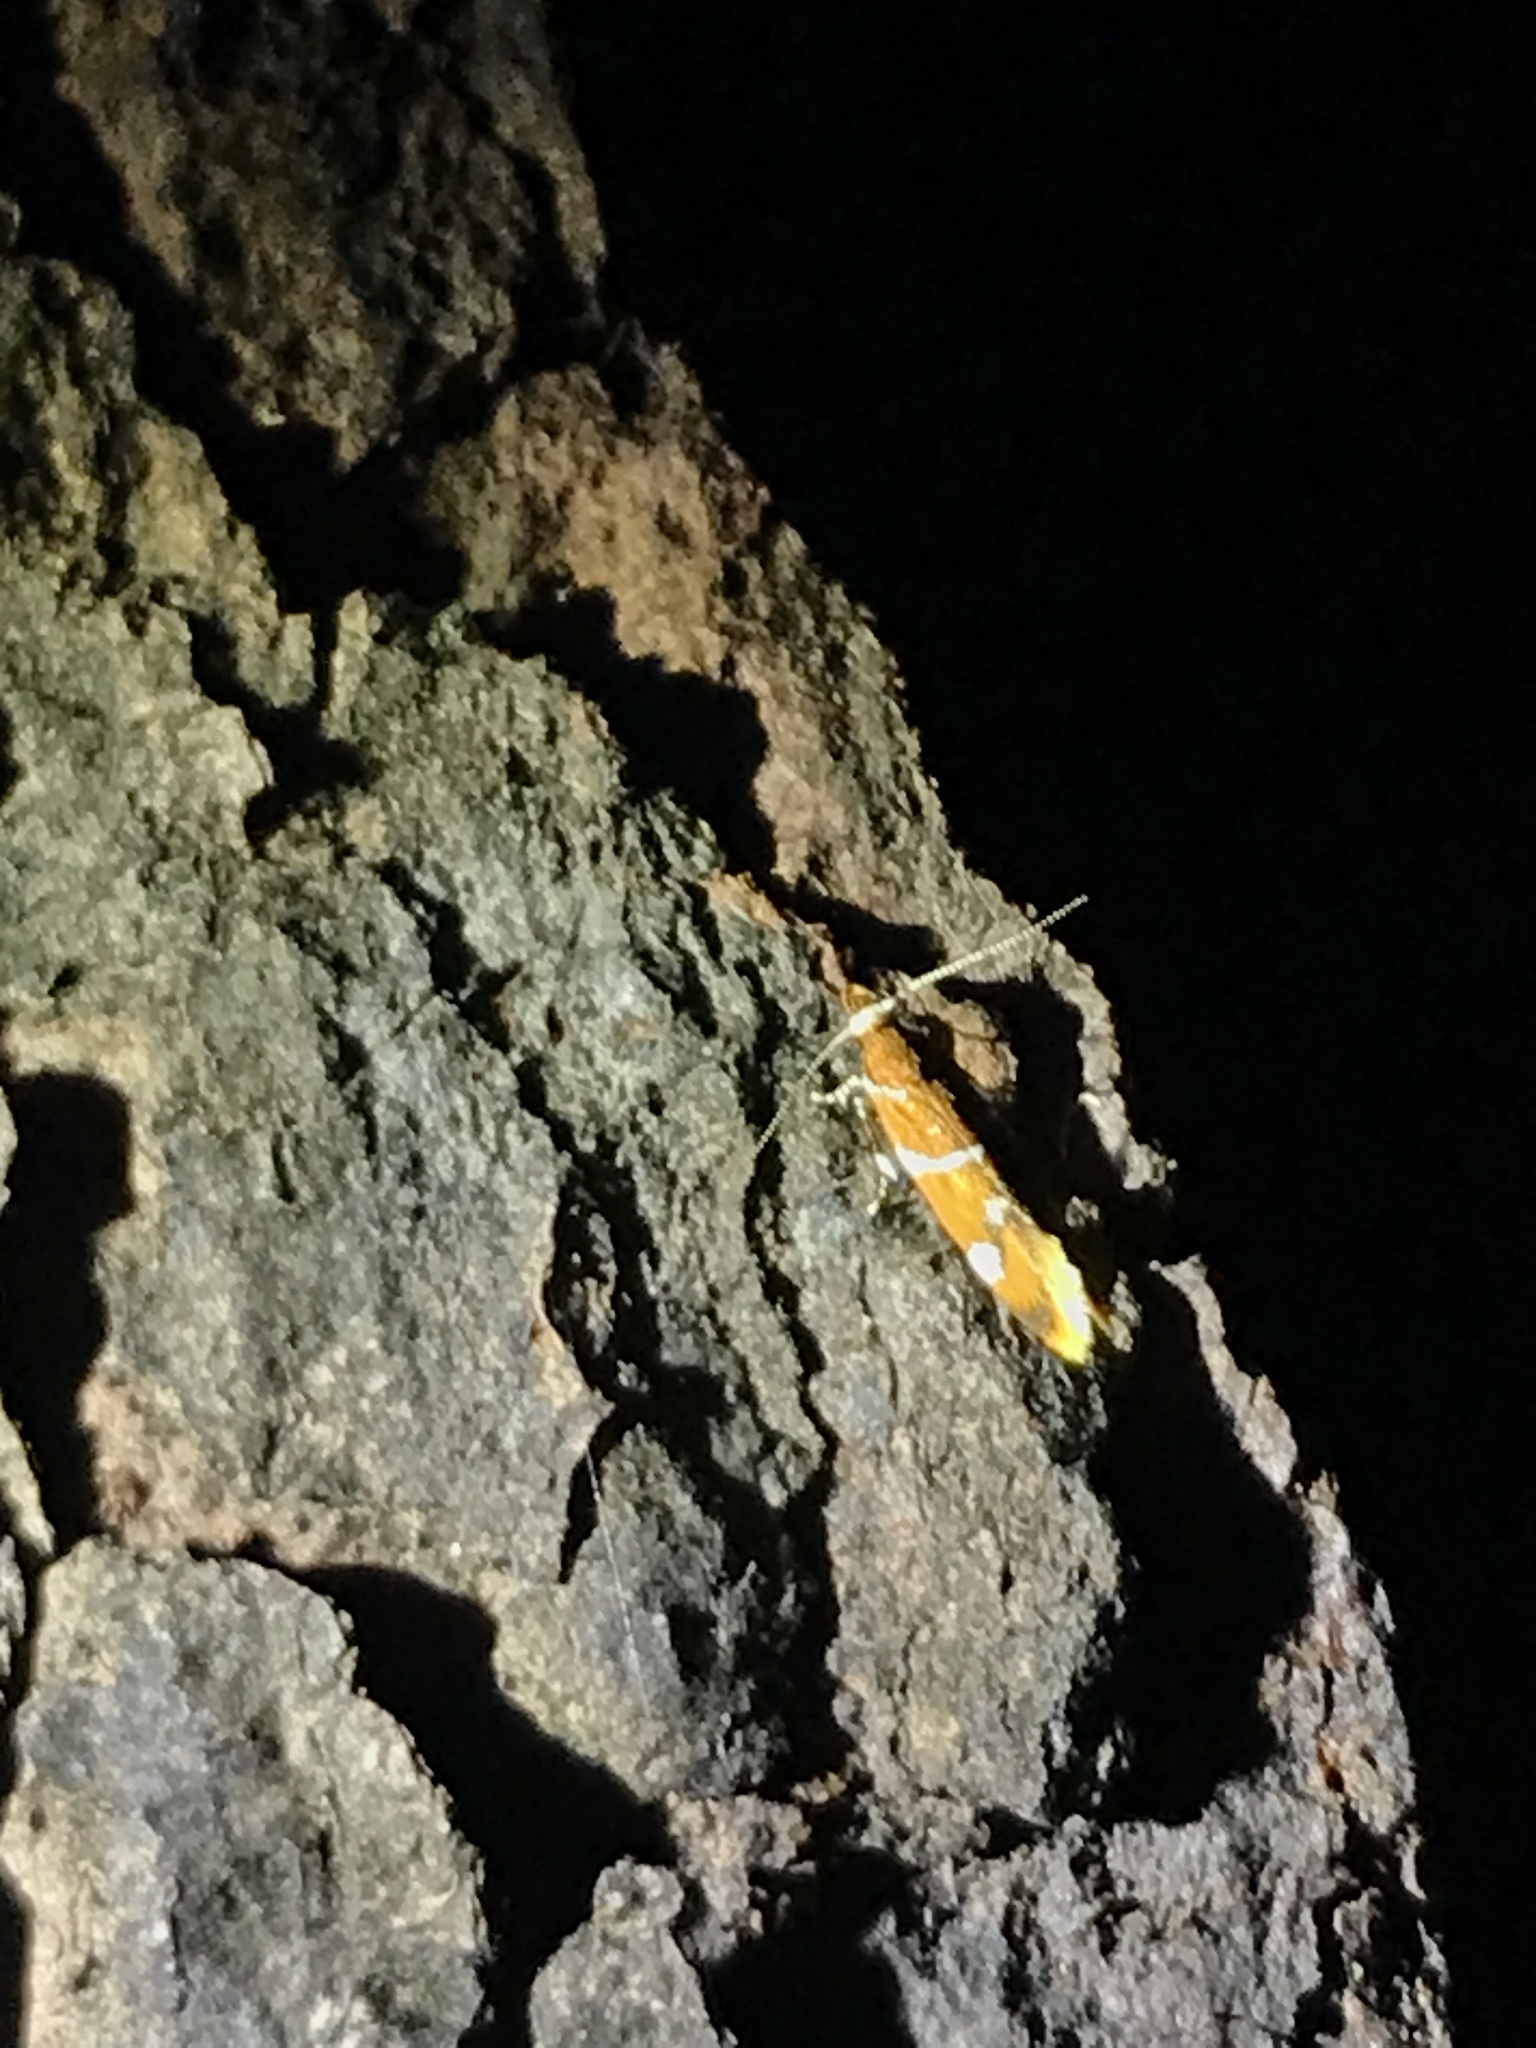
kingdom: Animalia
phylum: Arthropoda
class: Insecta
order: Lepidoptera
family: Oecophoridae
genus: Promalactis
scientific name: Promalactis suzukiella
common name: Moth
